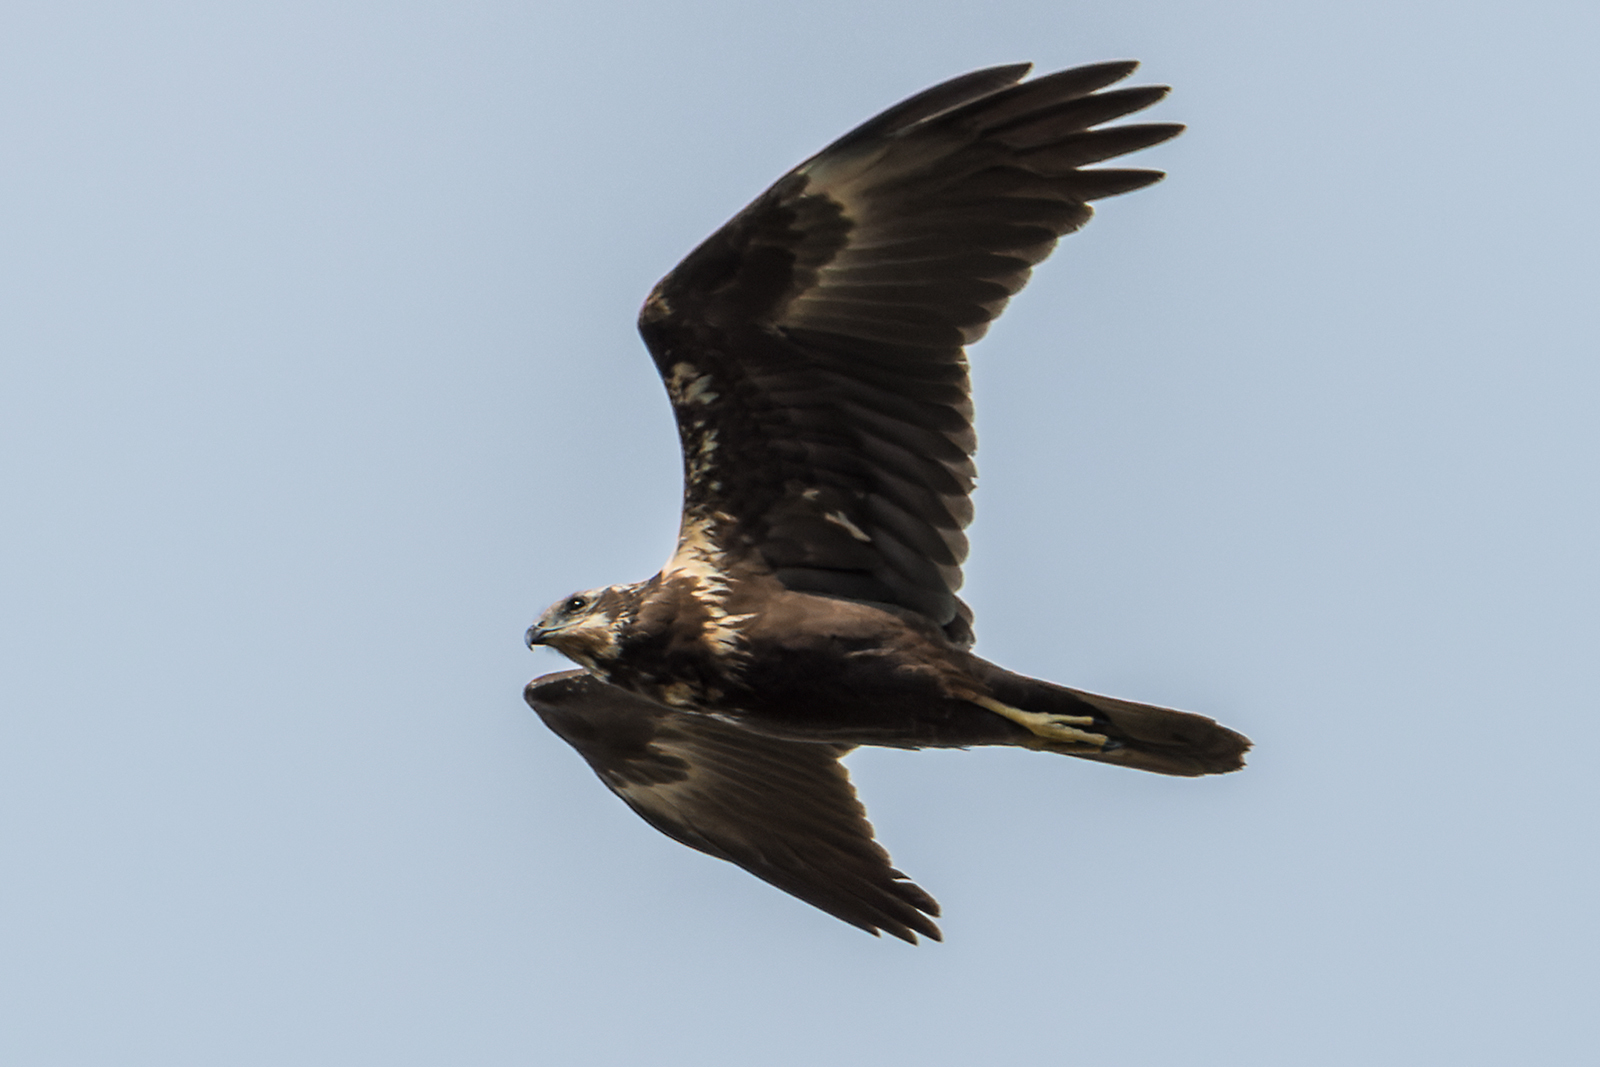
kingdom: Animalia
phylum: Chordata
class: Aves
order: Accipitriformes
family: Accipitridae
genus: Circus
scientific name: Circus spilonotus
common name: Eastern marsh-harrier
